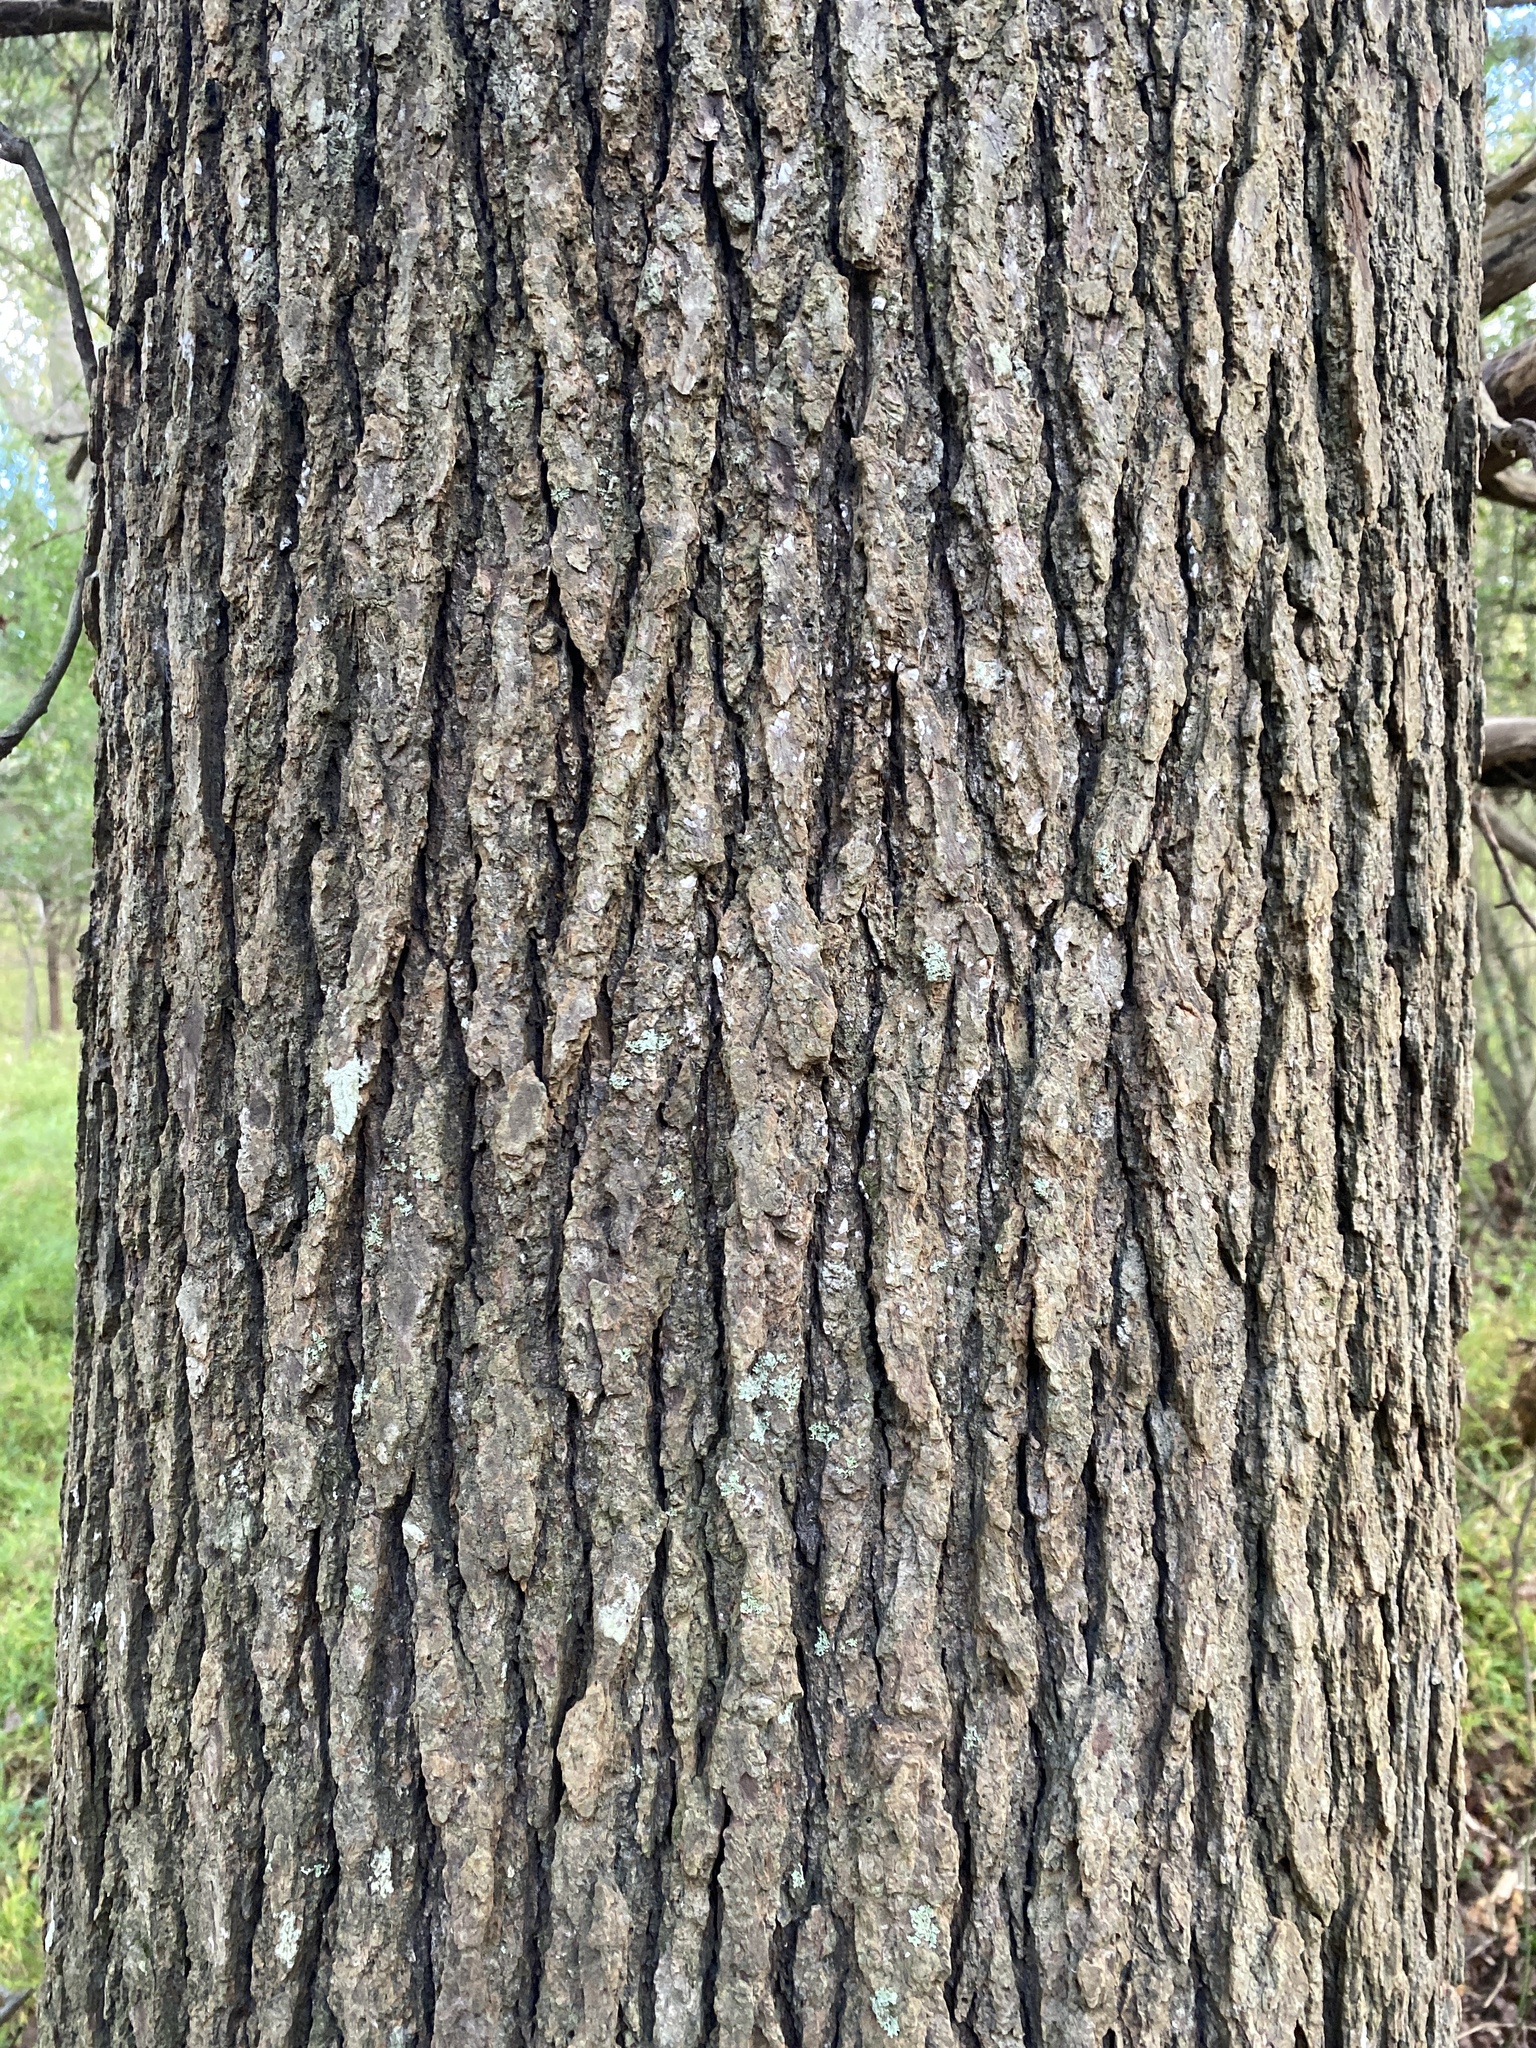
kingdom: Plantae
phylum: Tracheophyta
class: Magnoliopsida
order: Saxifragales
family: Altingiaceae
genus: Liquidambar
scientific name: Liquidambar styraciflua
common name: Sweet gum
